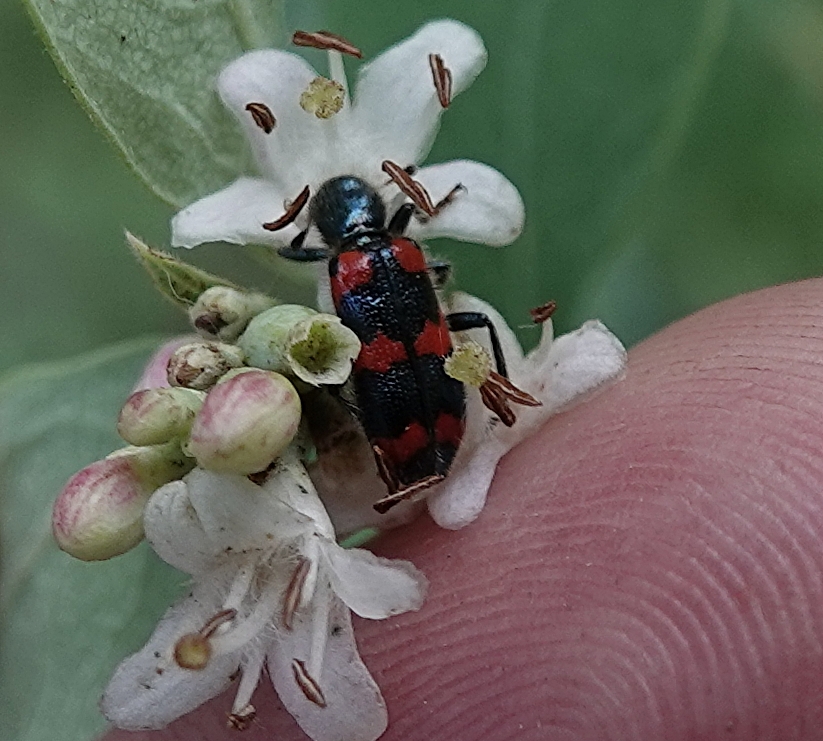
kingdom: Animalia
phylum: Arthropoda
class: Insecta
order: Coleoptera
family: Cleridae
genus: Trichodes
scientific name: Trichodes nutalli
